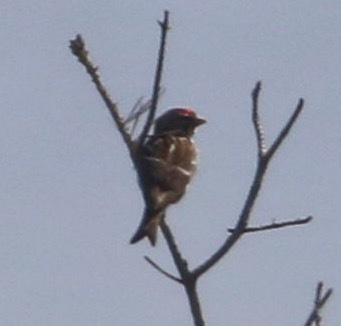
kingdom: Animalia
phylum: Chordata
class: Aves
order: Passeriformes
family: Fringillidae
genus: Acanthis
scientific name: Acanthis flammea
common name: Common redpoll
